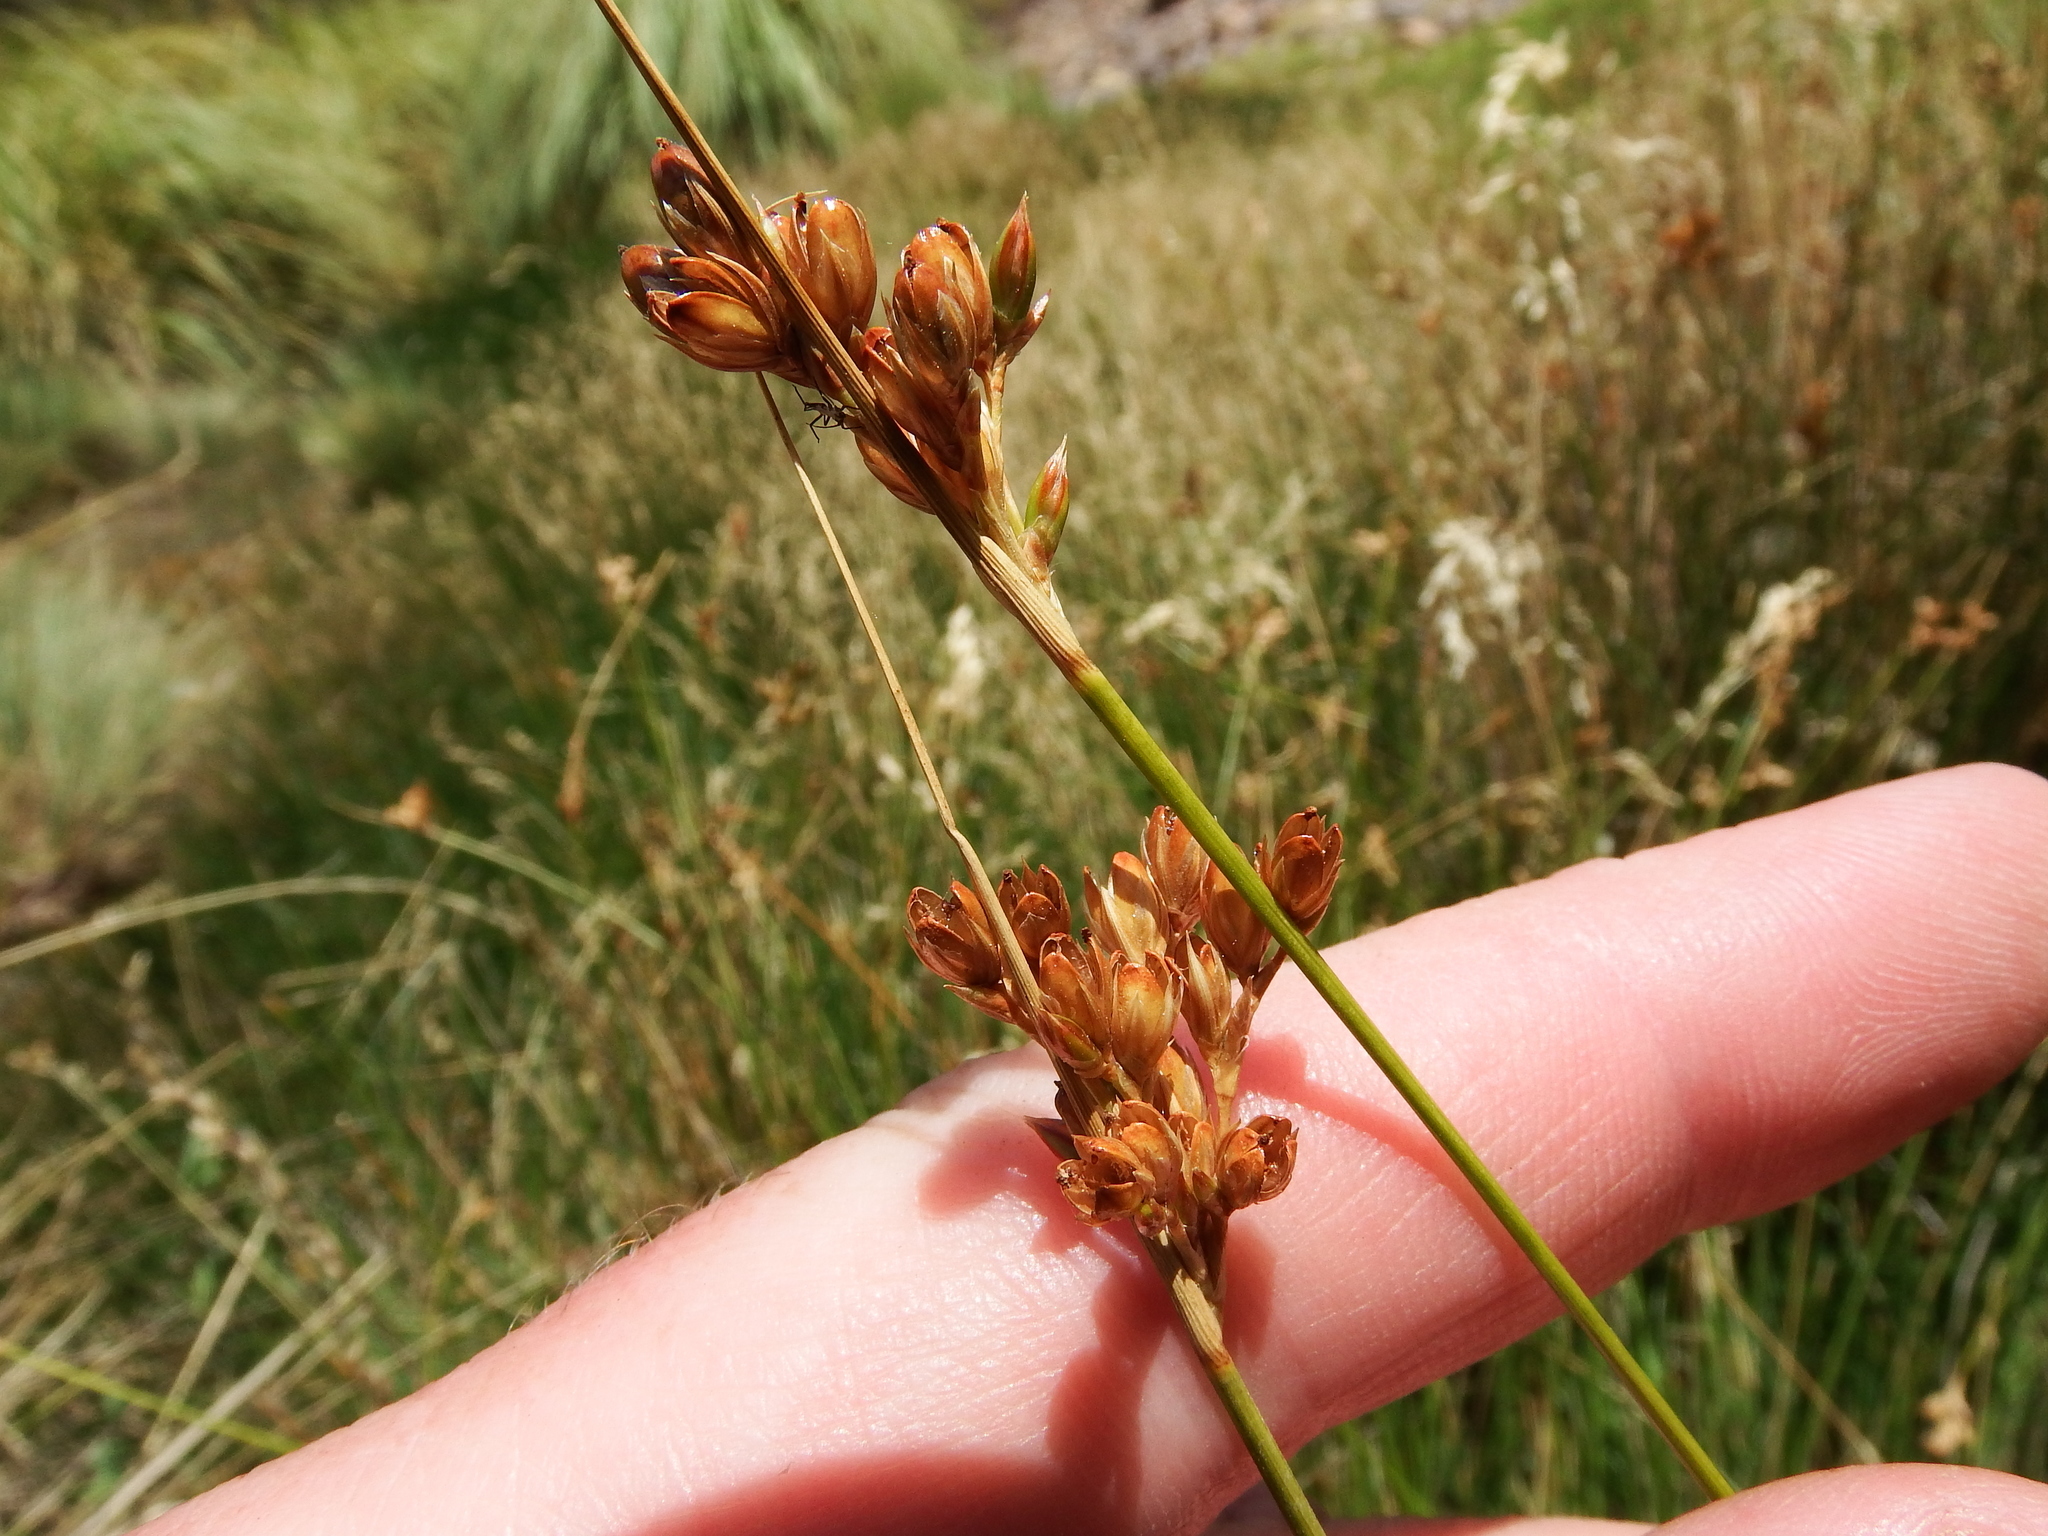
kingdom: Plantae
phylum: Tracheophyta
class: Liliopsida
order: Poales
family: Juncaceae
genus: Juncus
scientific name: Juncus imbricatus
